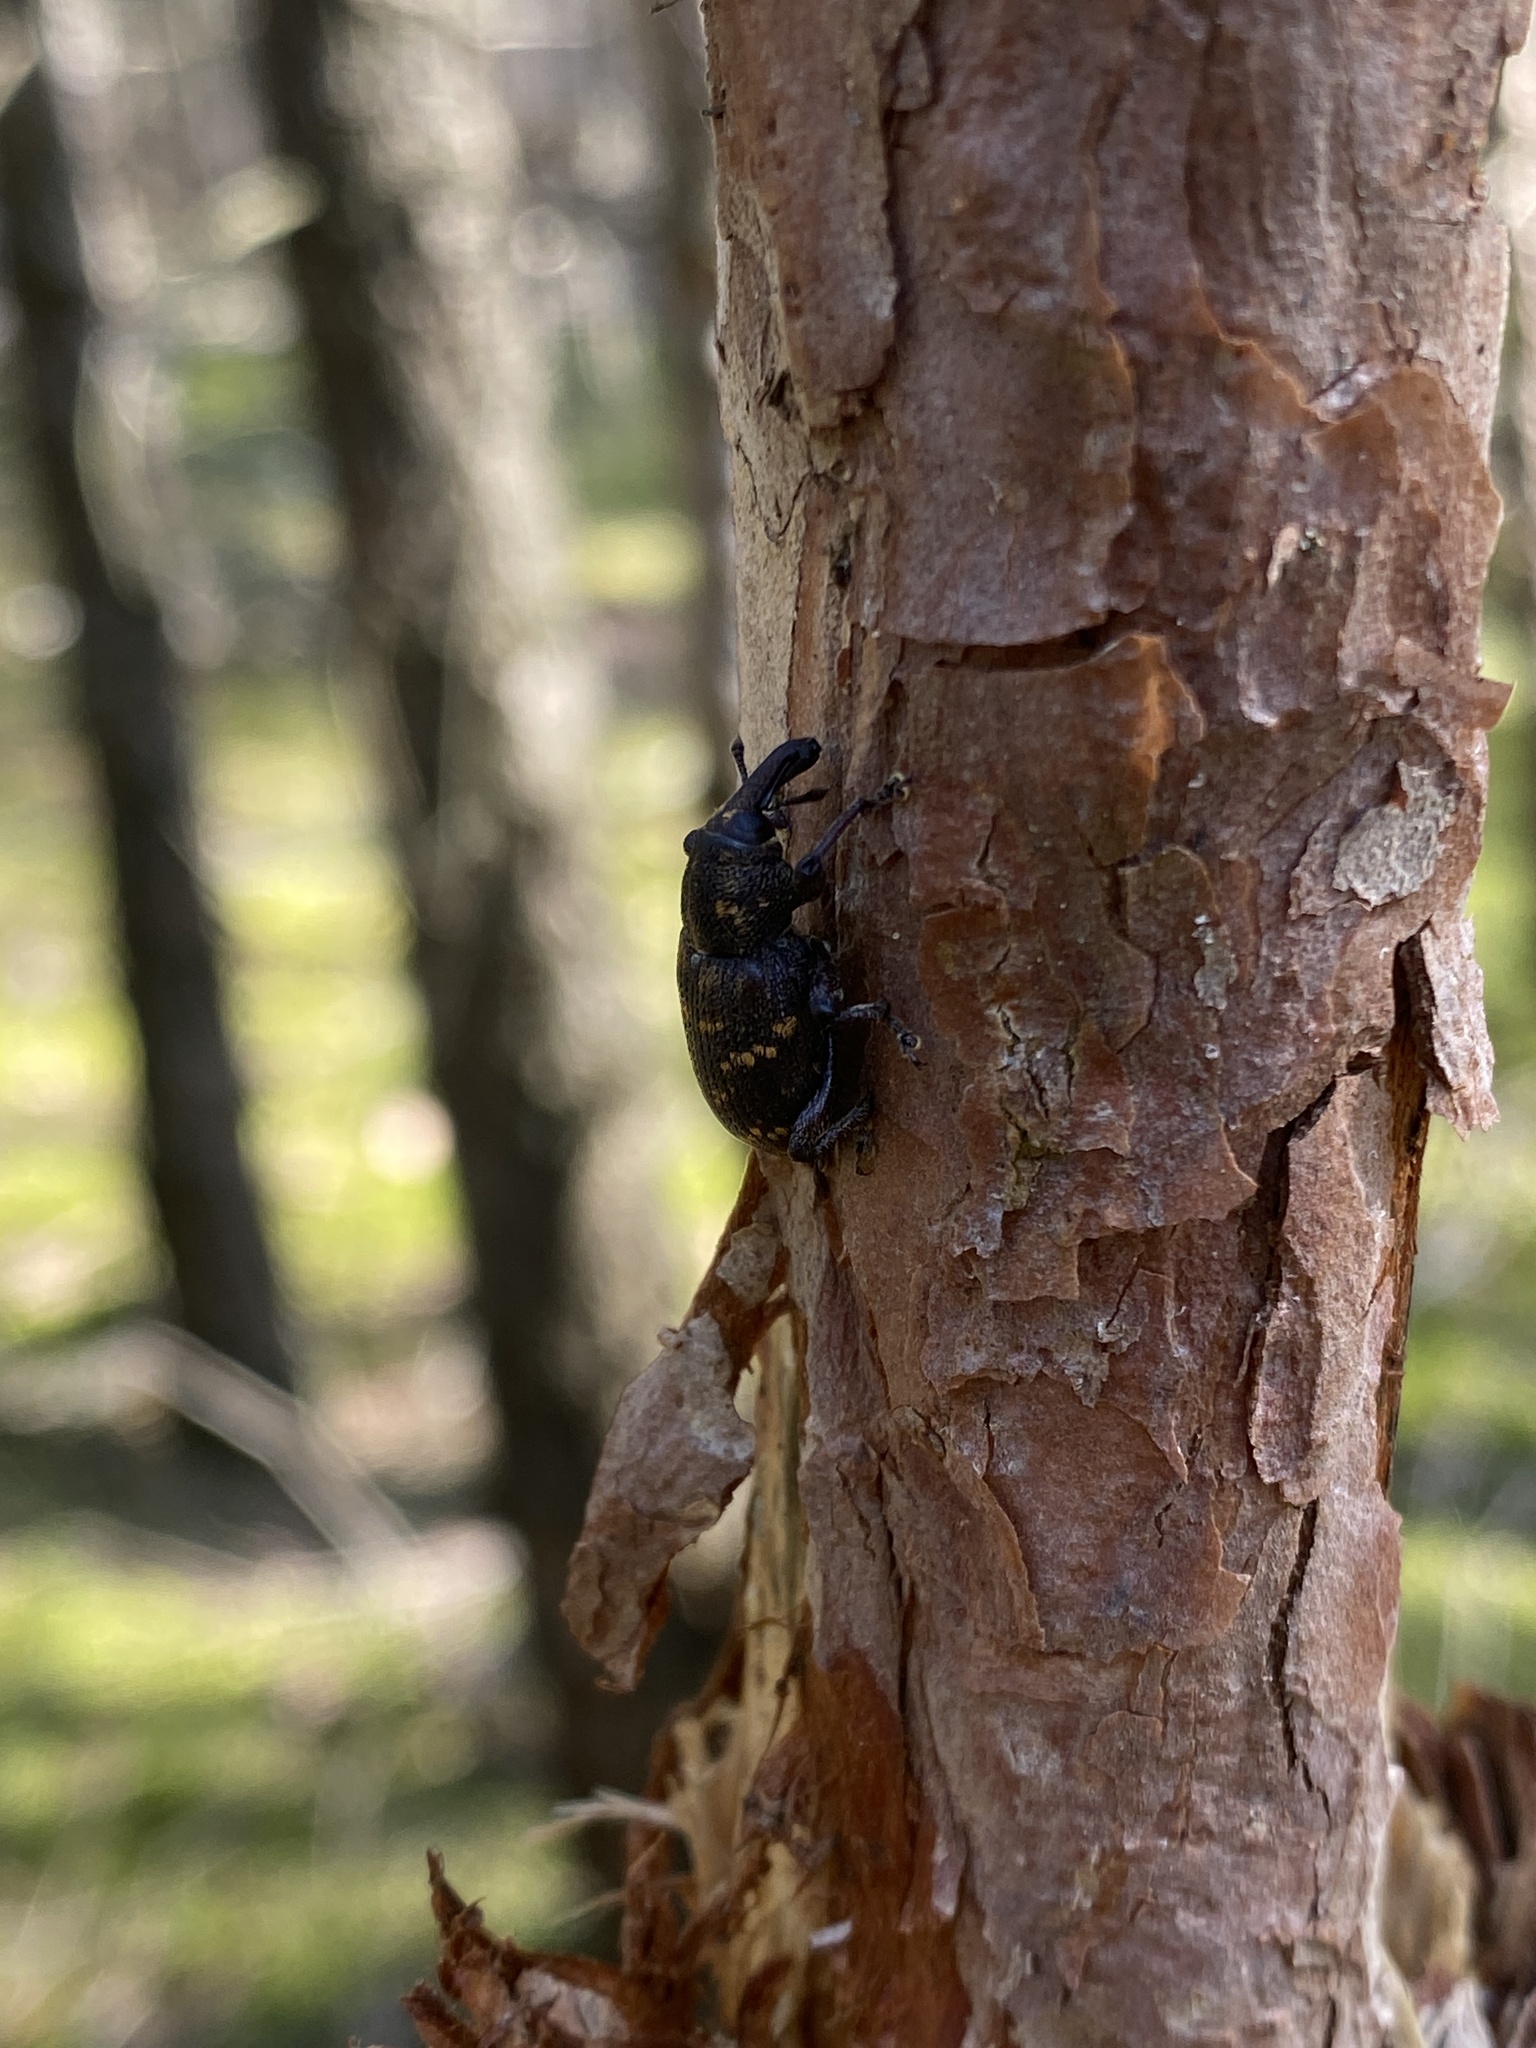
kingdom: Animalia
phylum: Arthropoda
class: Insecta
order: Coleoptera
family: Curculionidae
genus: Hylobius
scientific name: Hylobius abietis
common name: Large pine weevil
